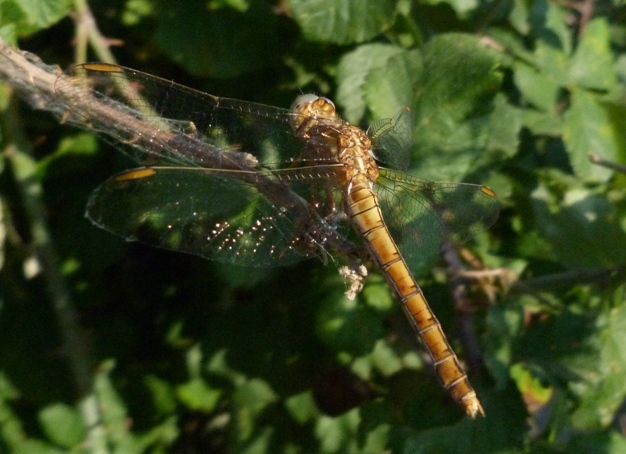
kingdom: Animalia
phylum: Arthropoda
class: Insecta
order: Odonata
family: Libellulidae
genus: Orthetrum
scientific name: Orthetrum coerulescens
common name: Keeled skimmer
